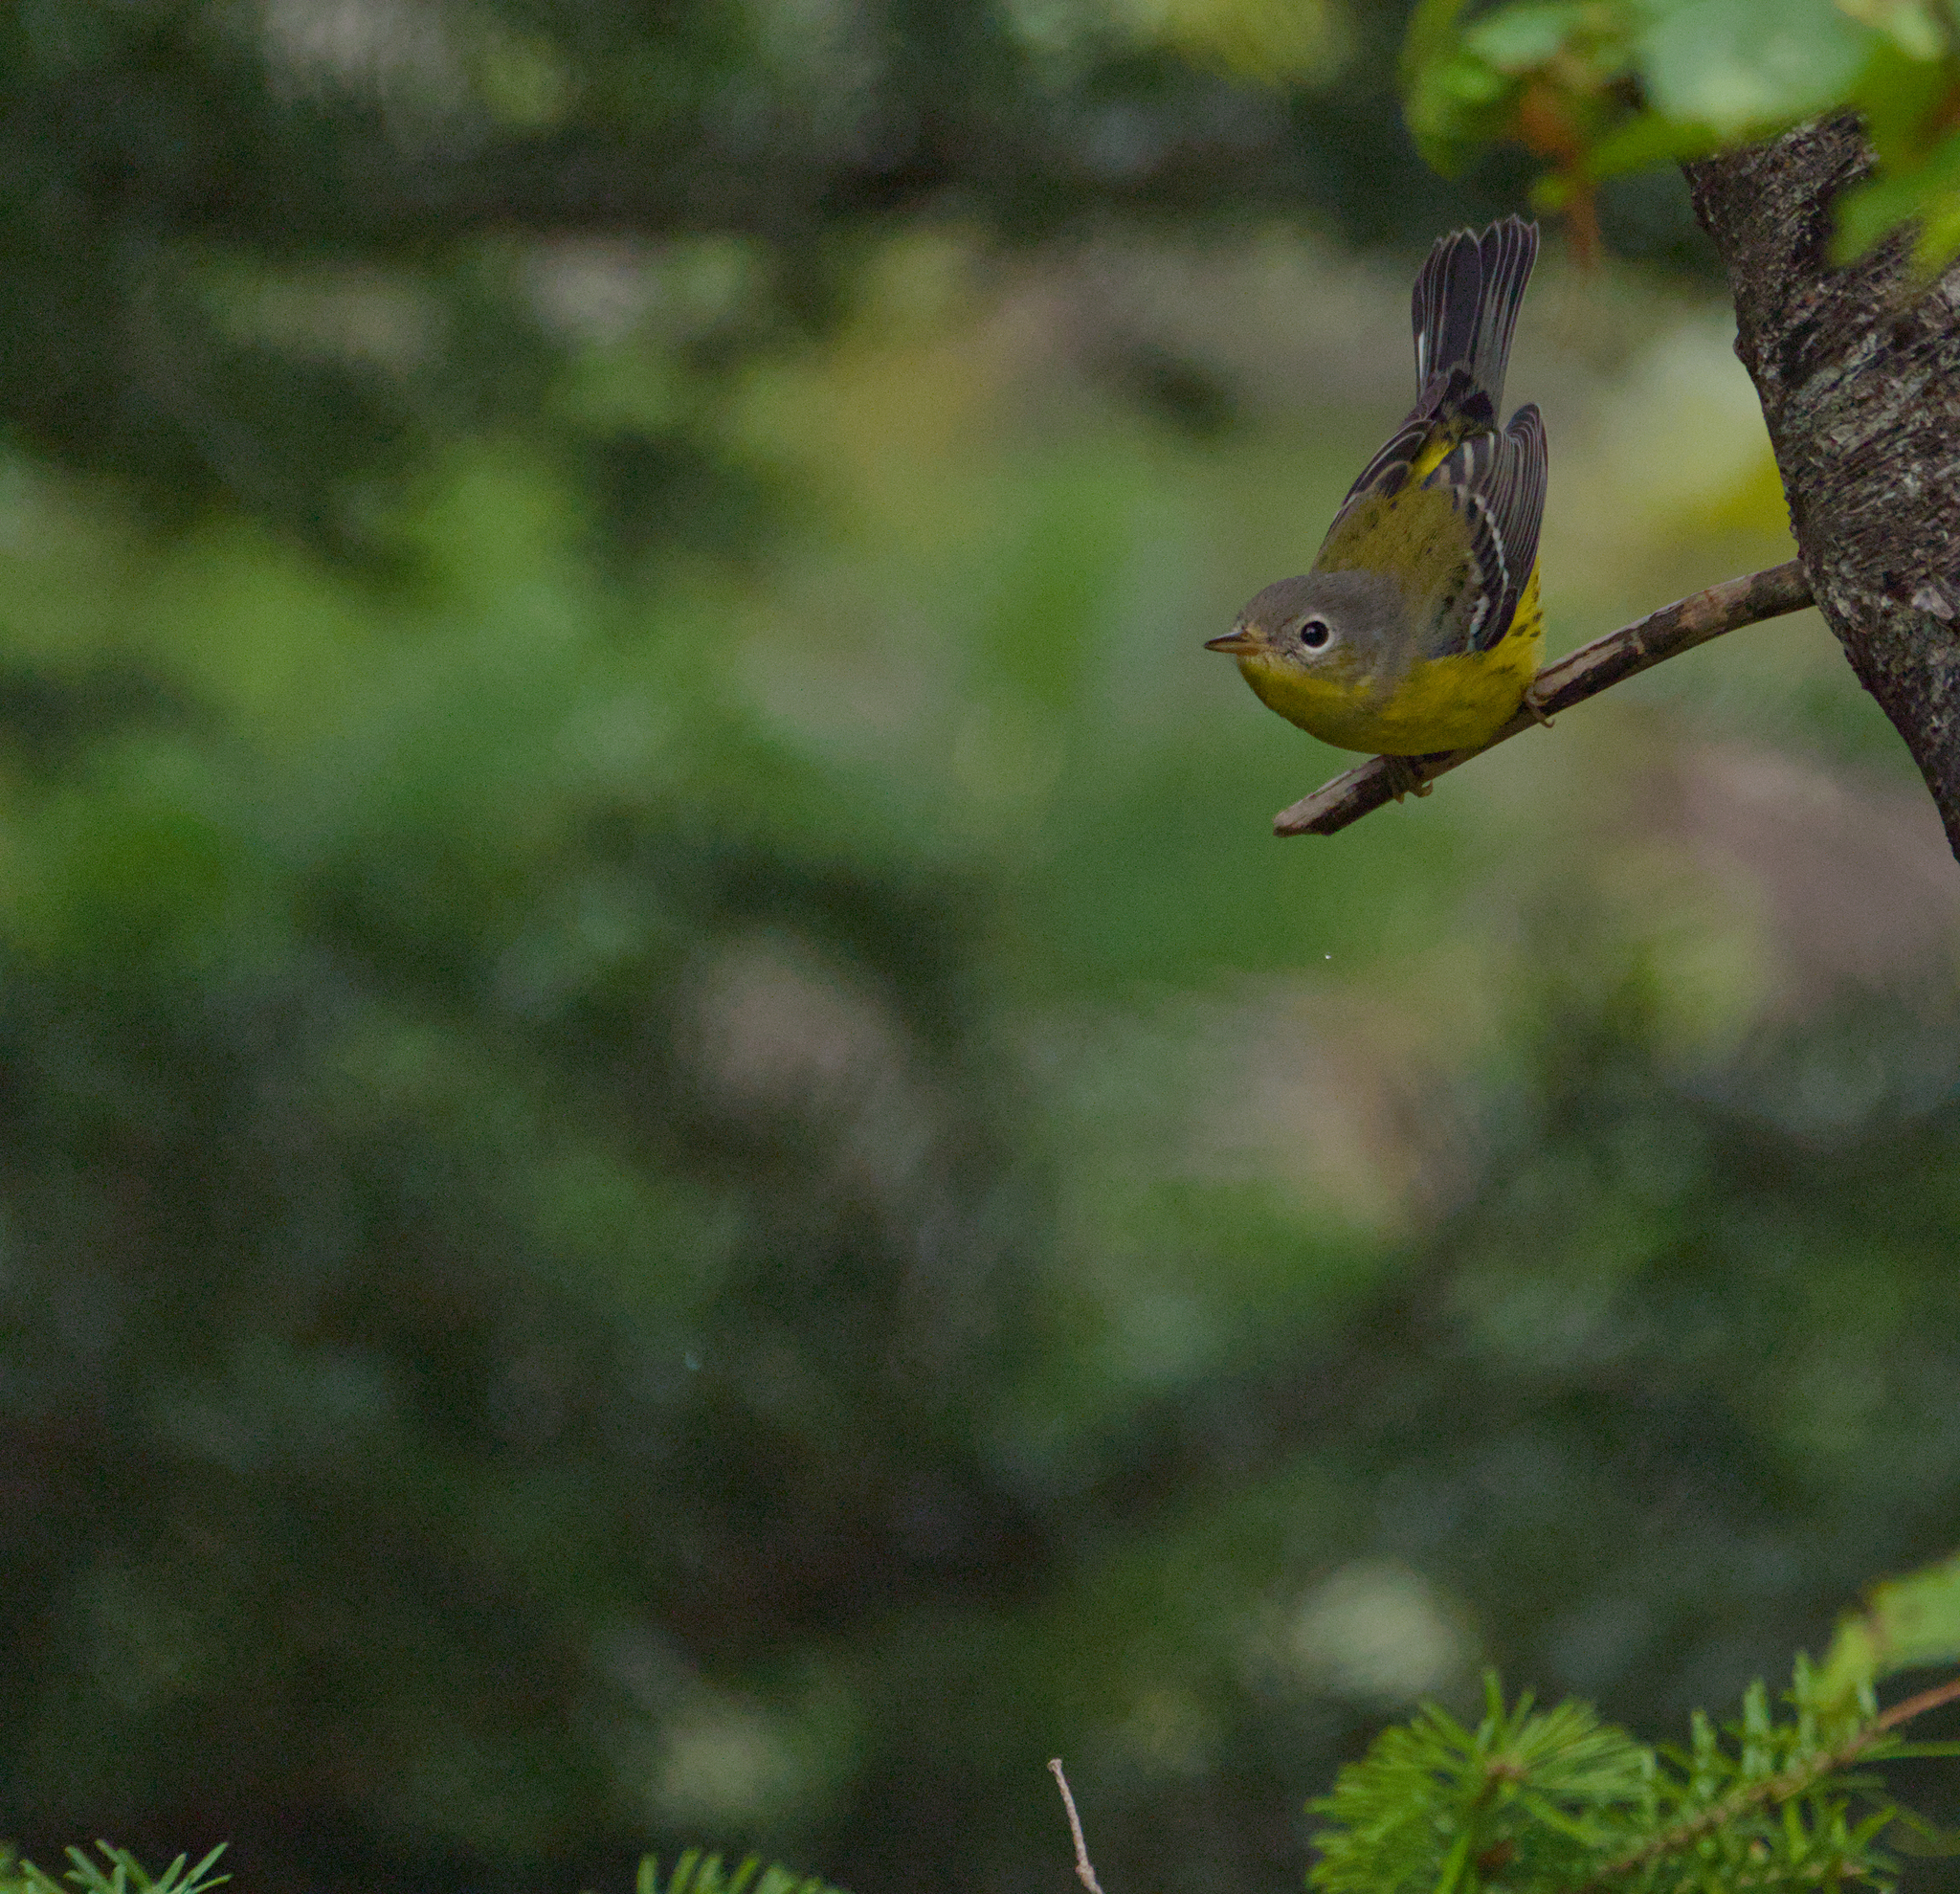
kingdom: Animalia
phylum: Chordata
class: Aves
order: Passeriformes
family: Parulidae
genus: Setophaga
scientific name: Setophaga magnolia
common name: Magnolia warbler
